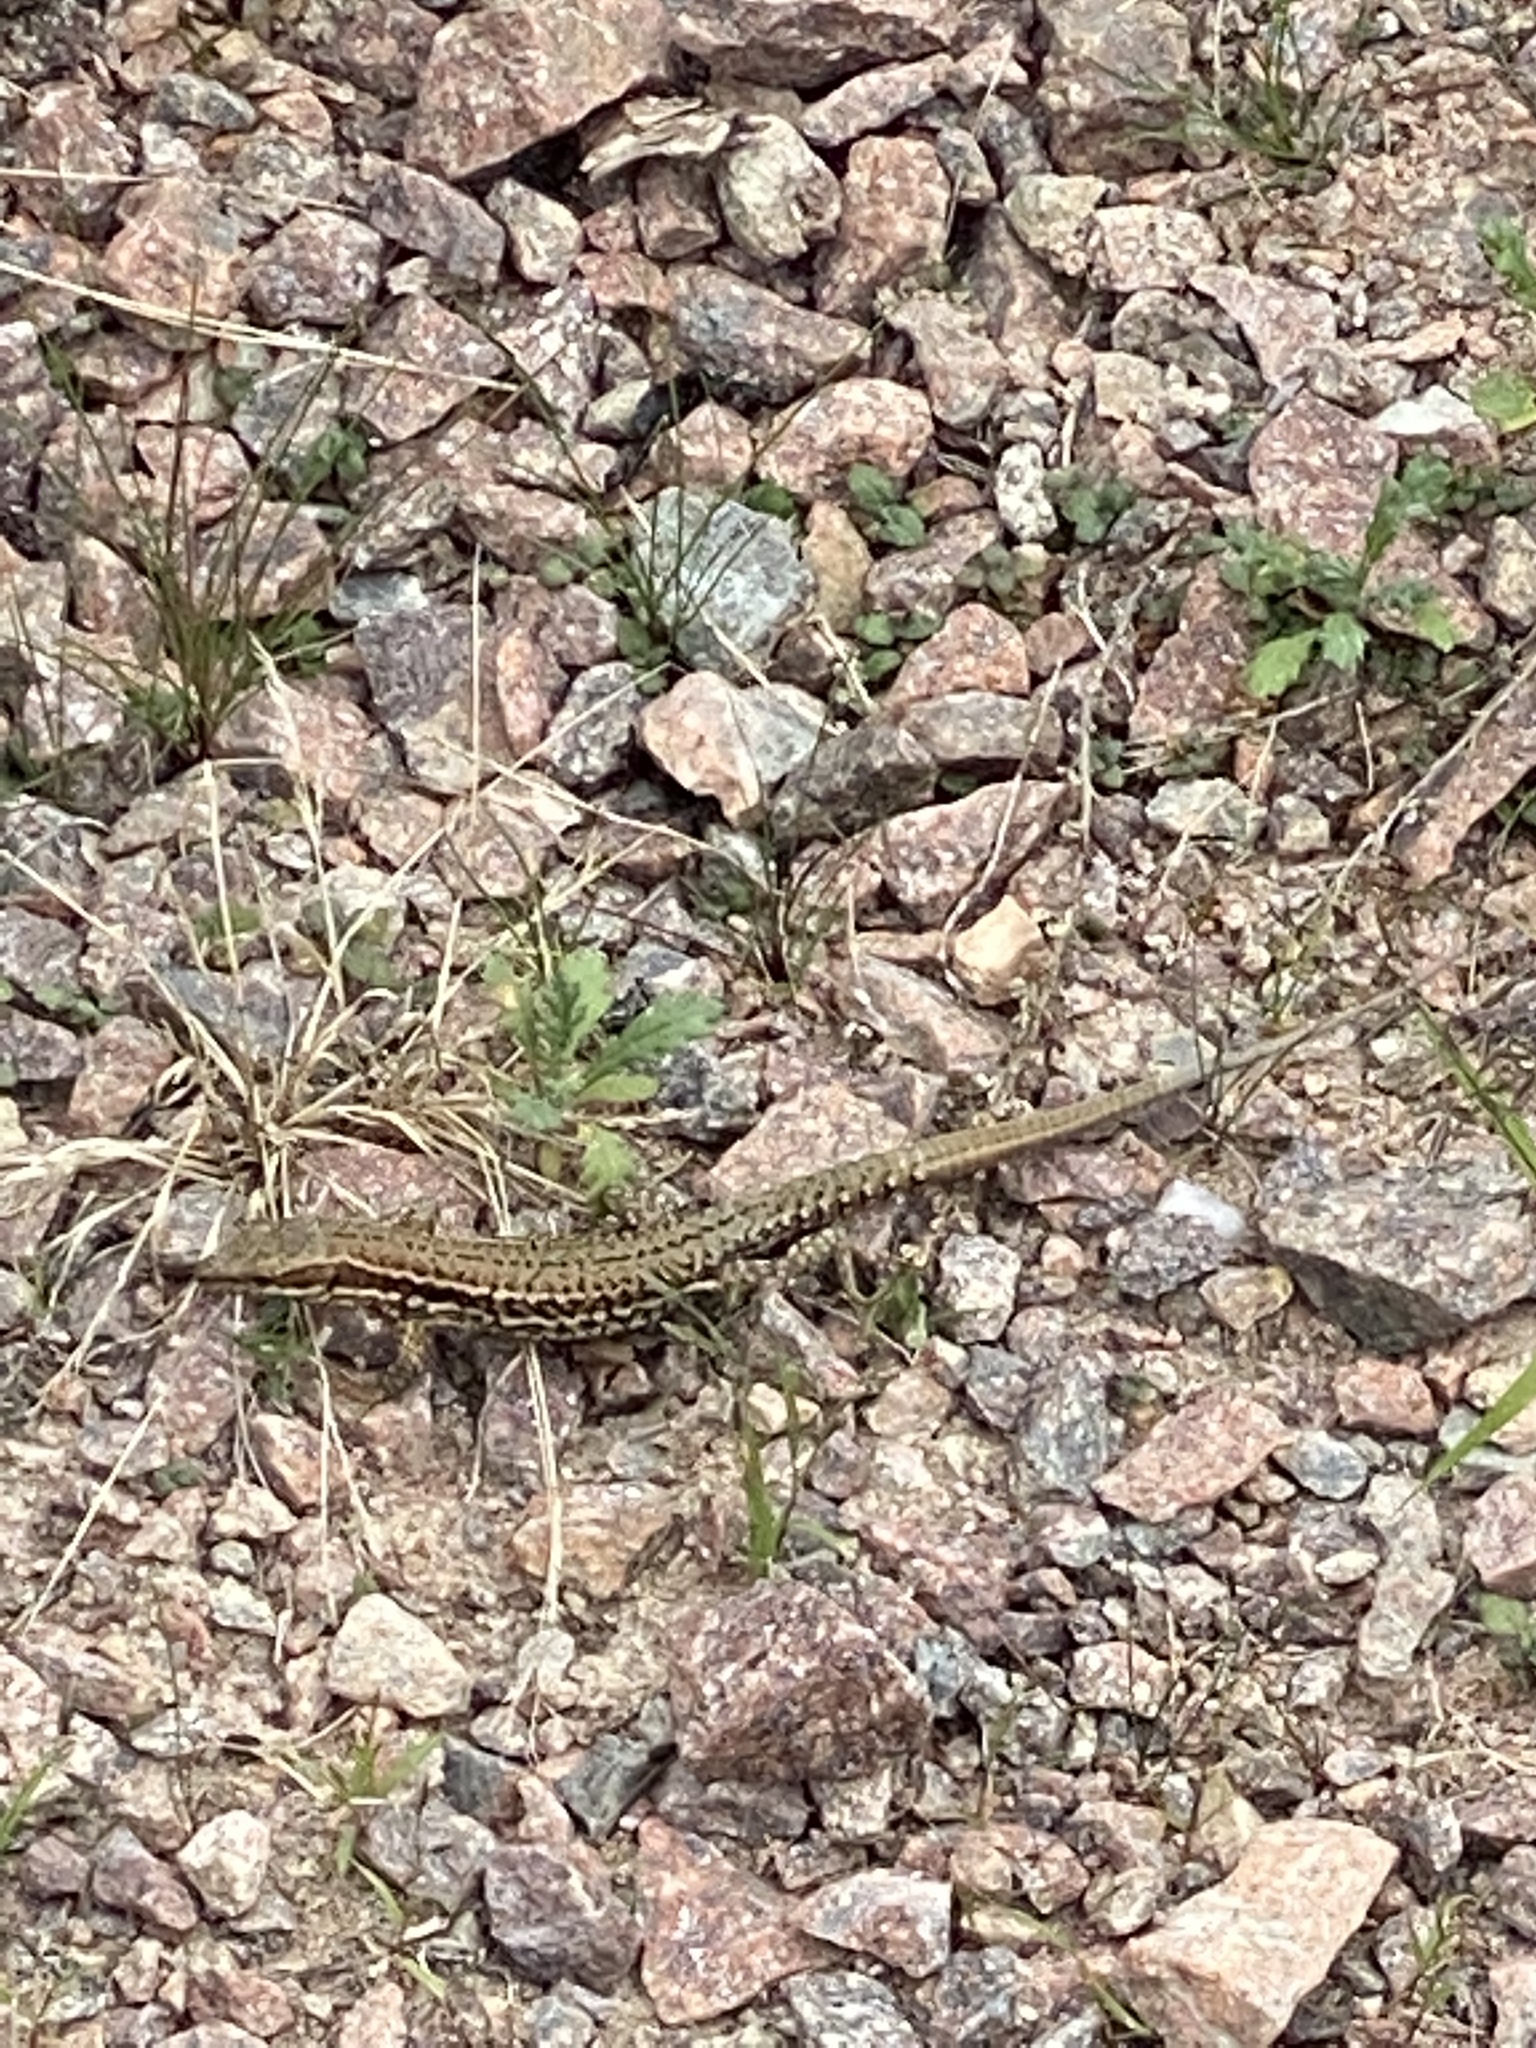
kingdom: Animalia
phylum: Chordata
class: Squamata
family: Lacertidae
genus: Podarcis
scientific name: Podarcis muralis
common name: Common wall lizard
